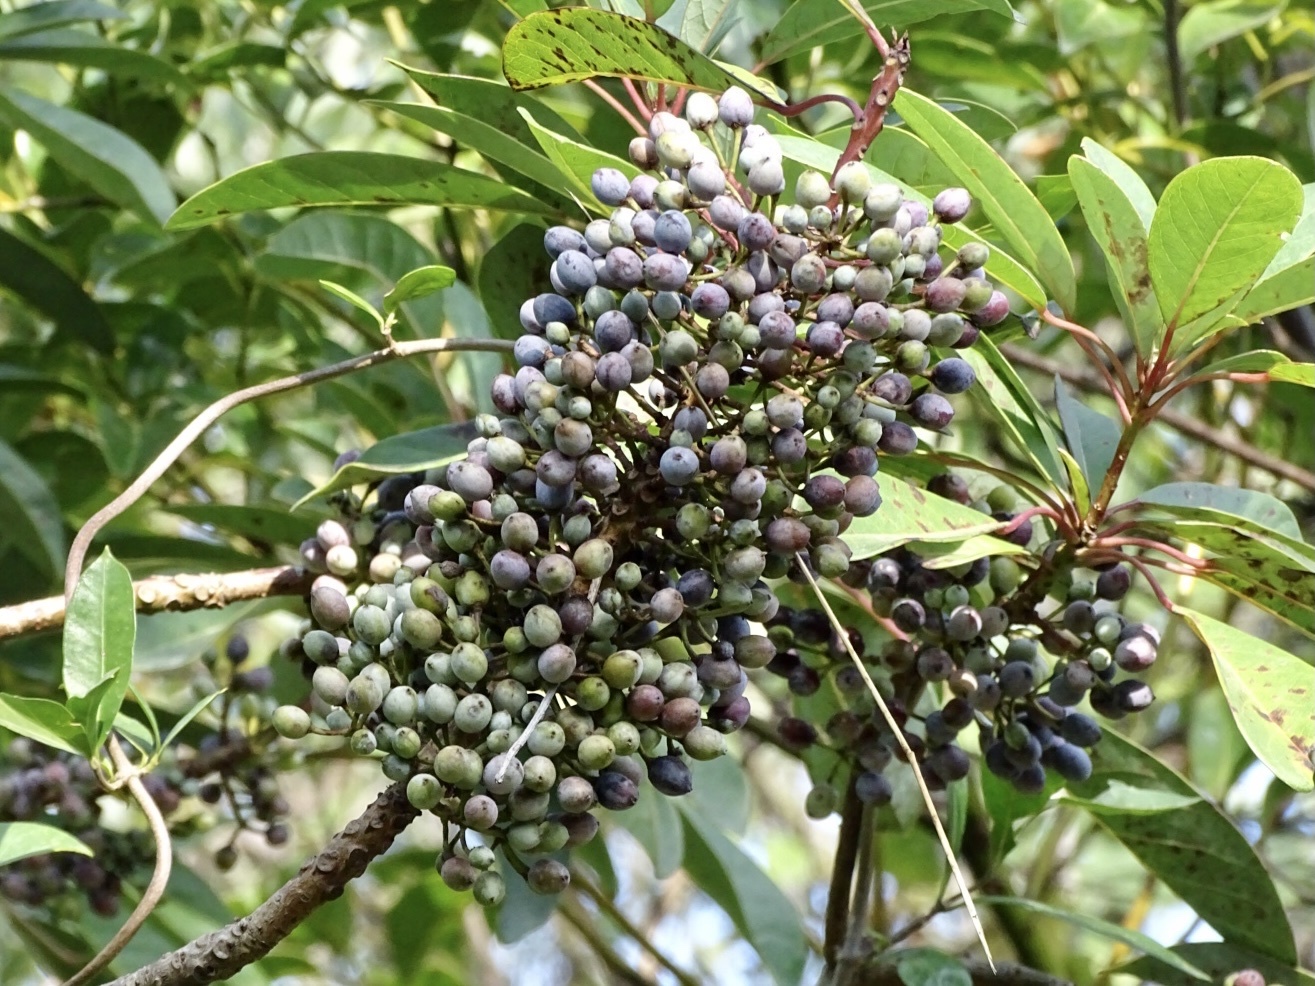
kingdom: Plantae
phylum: Tracheophyta
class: Magnoliopsida
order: Saxifragales
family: Daphniphyllaceae
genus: Daphniphyllum
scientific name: Daphniphyllum calycinum
